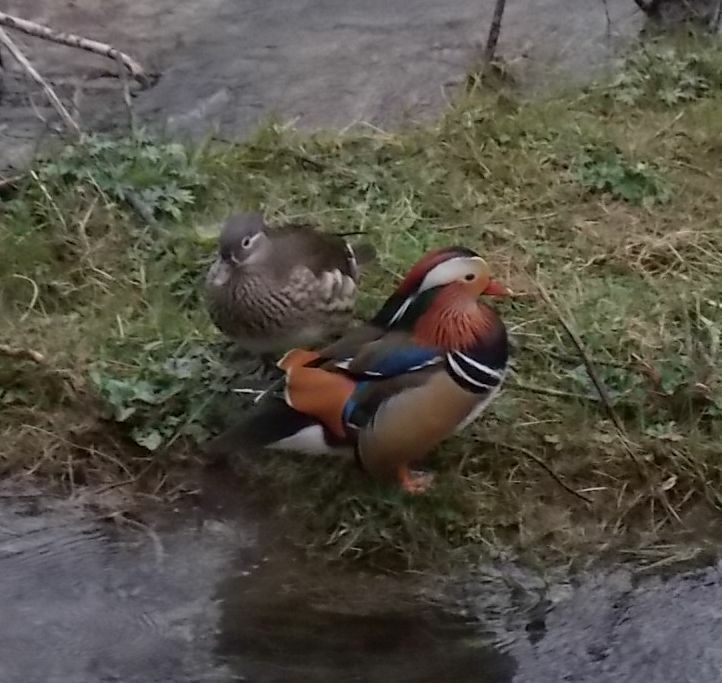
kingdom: Animalia
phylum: Chordata
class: Aves
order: Anseriformes
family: Anatidae
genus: Aix
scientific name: Aix galericulata
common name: Mandarin duck
